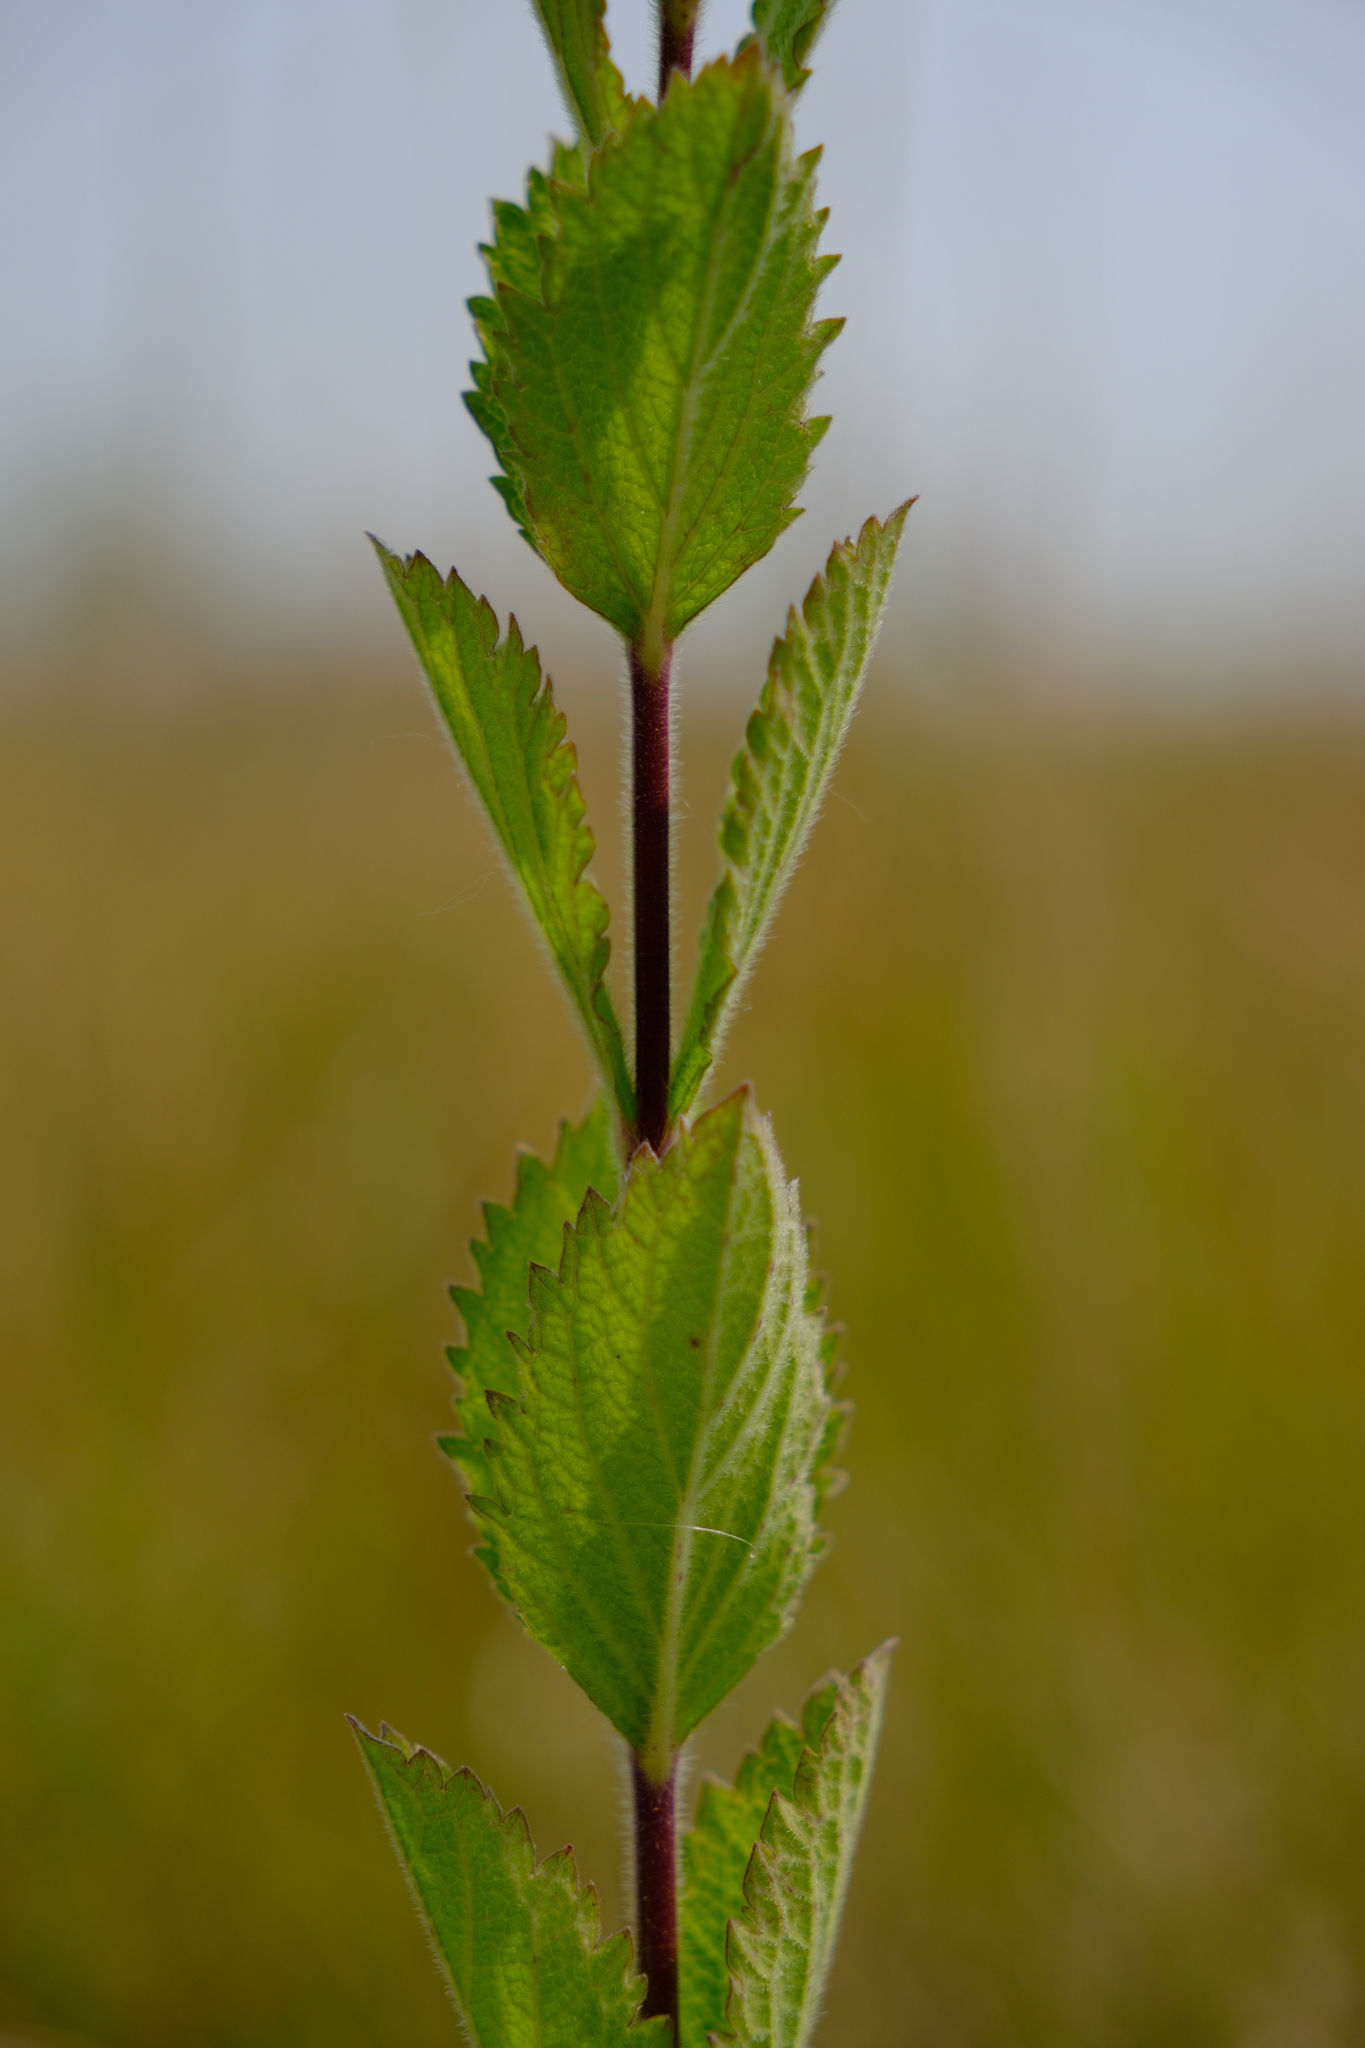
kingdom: Plantae
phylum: Tracheophyta
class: Magnoliopsida
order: Lamiales
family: Verbenaceae
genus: Verbena
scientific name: Verbena stricta
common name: Hoary vervain
